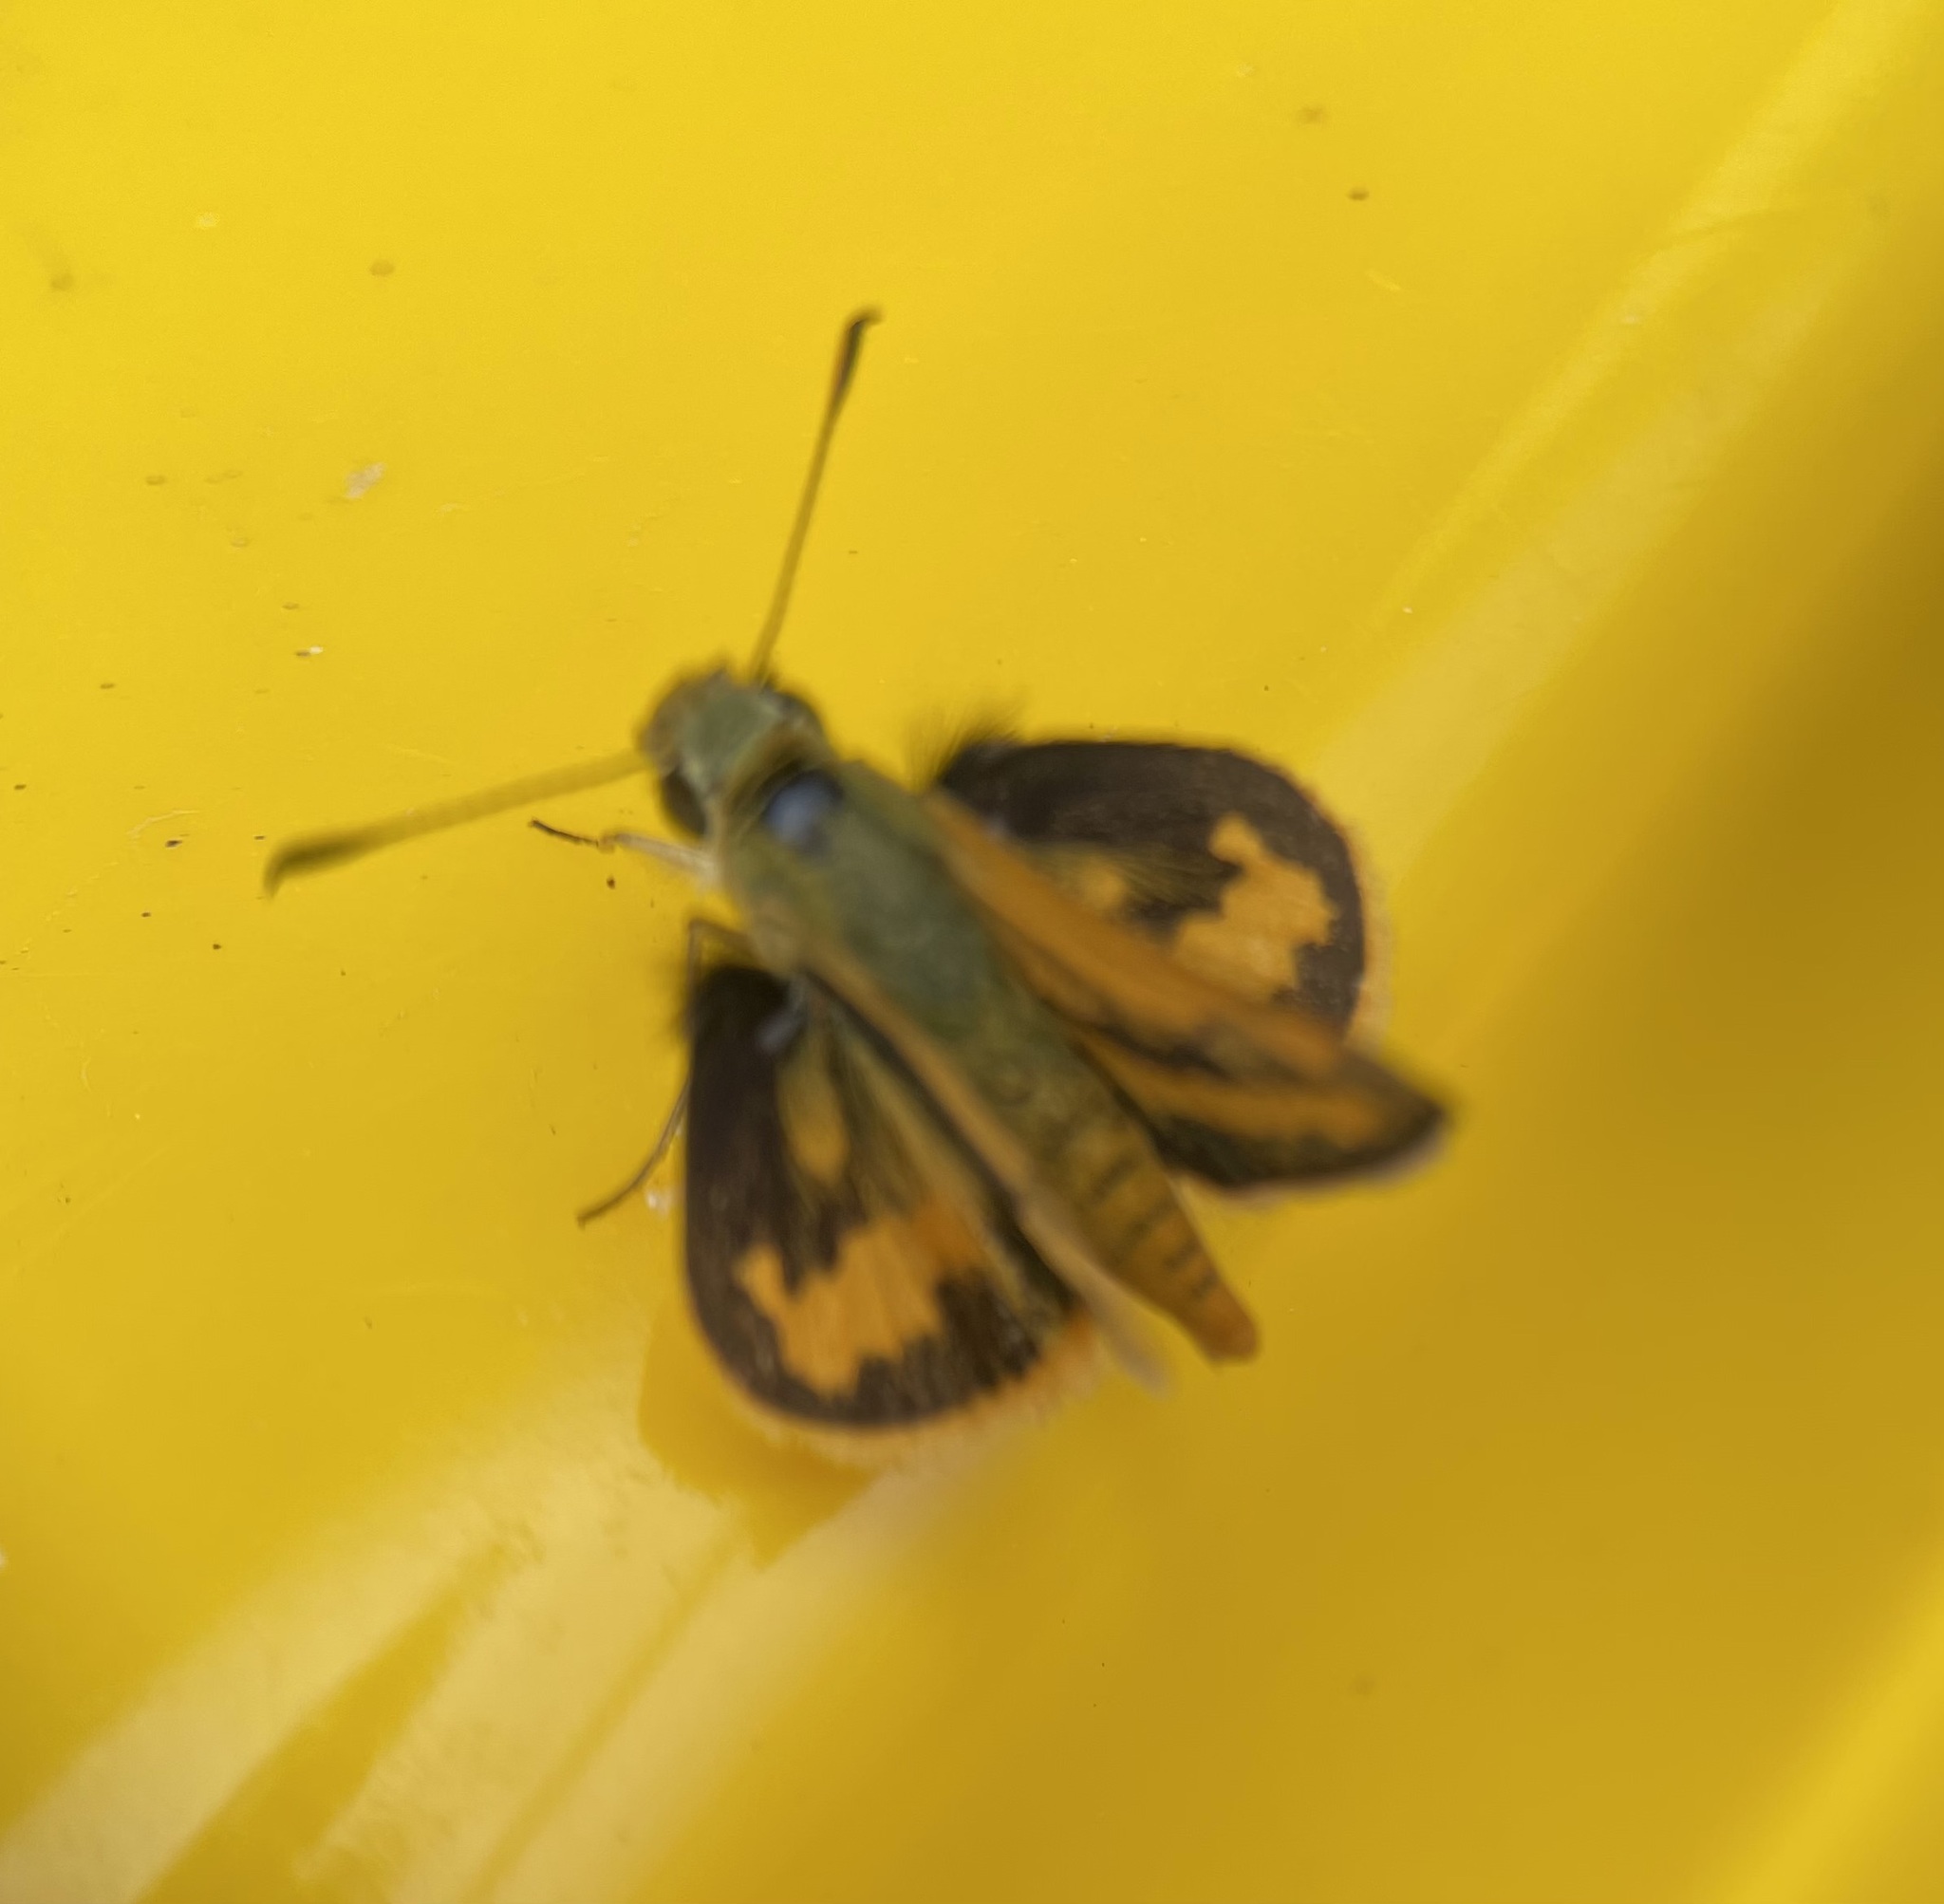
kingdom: Animalia
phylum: Arthropoda
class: Insecta
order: Lepidoptera
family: Hesperiidae
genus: Ocybadistes
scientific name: Ocybadistes walkeri
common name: Yellow-banded dart
